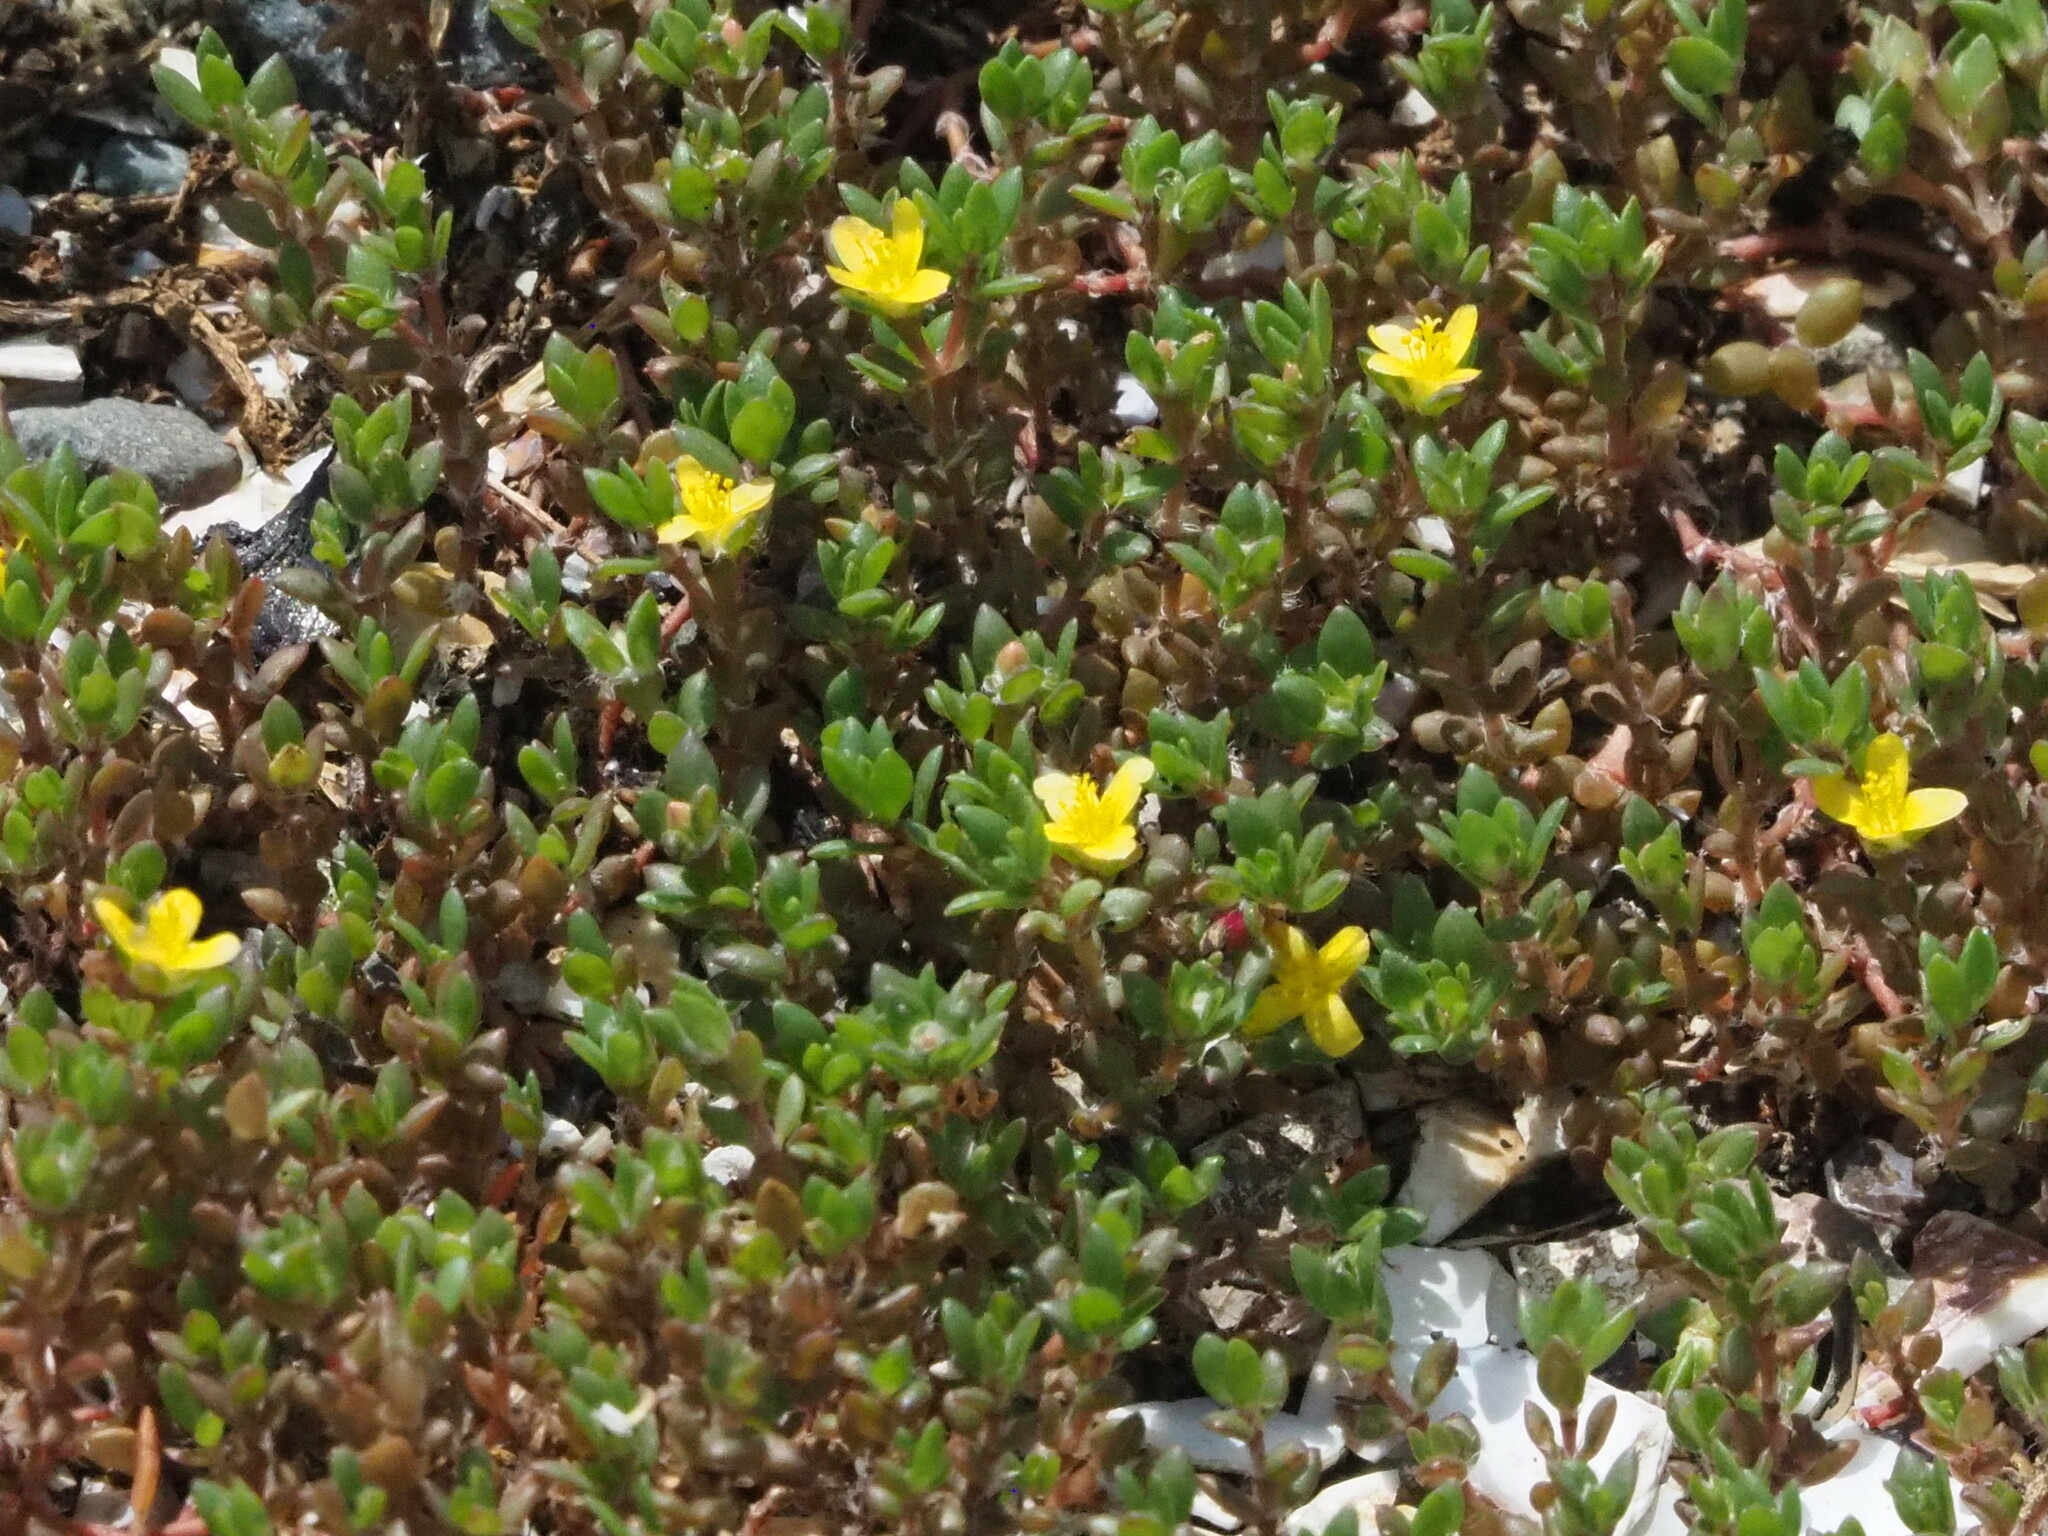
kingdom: Plantae
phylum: Tracheophyta
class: Magnoliopsida
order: Caryophyllales
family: Portulacaceae
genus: Portulaca
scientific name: Portulaca quadrifida
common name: Chickenweed
